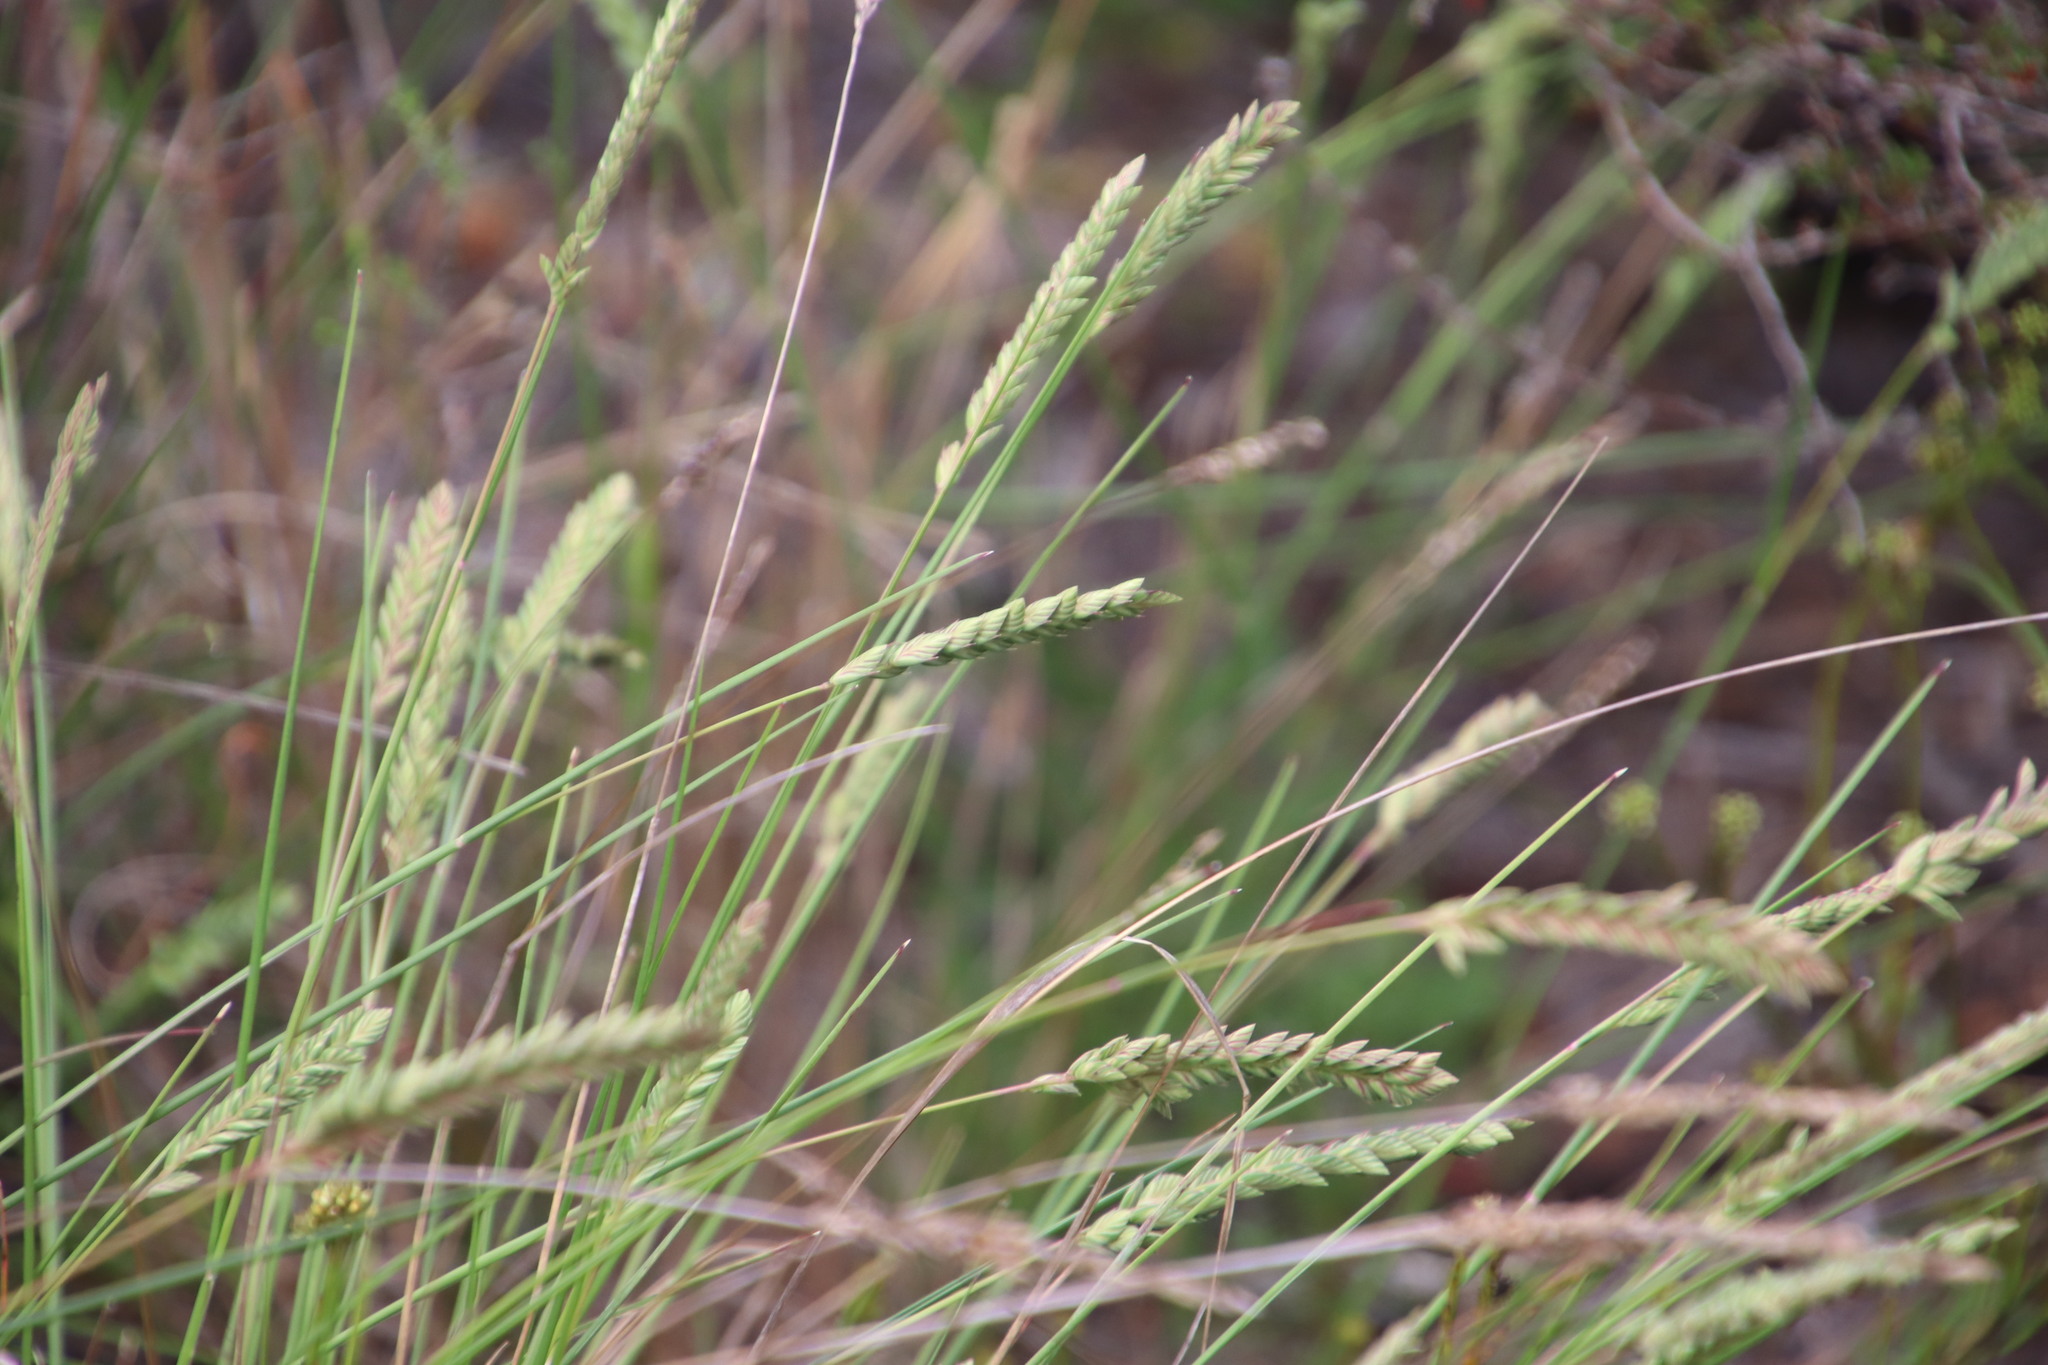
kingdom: Plantae
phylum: Tracheophyta
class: Liliopsida
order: Poales
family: Poaceae
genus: Tribolium
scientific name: Tribolium uniolae
